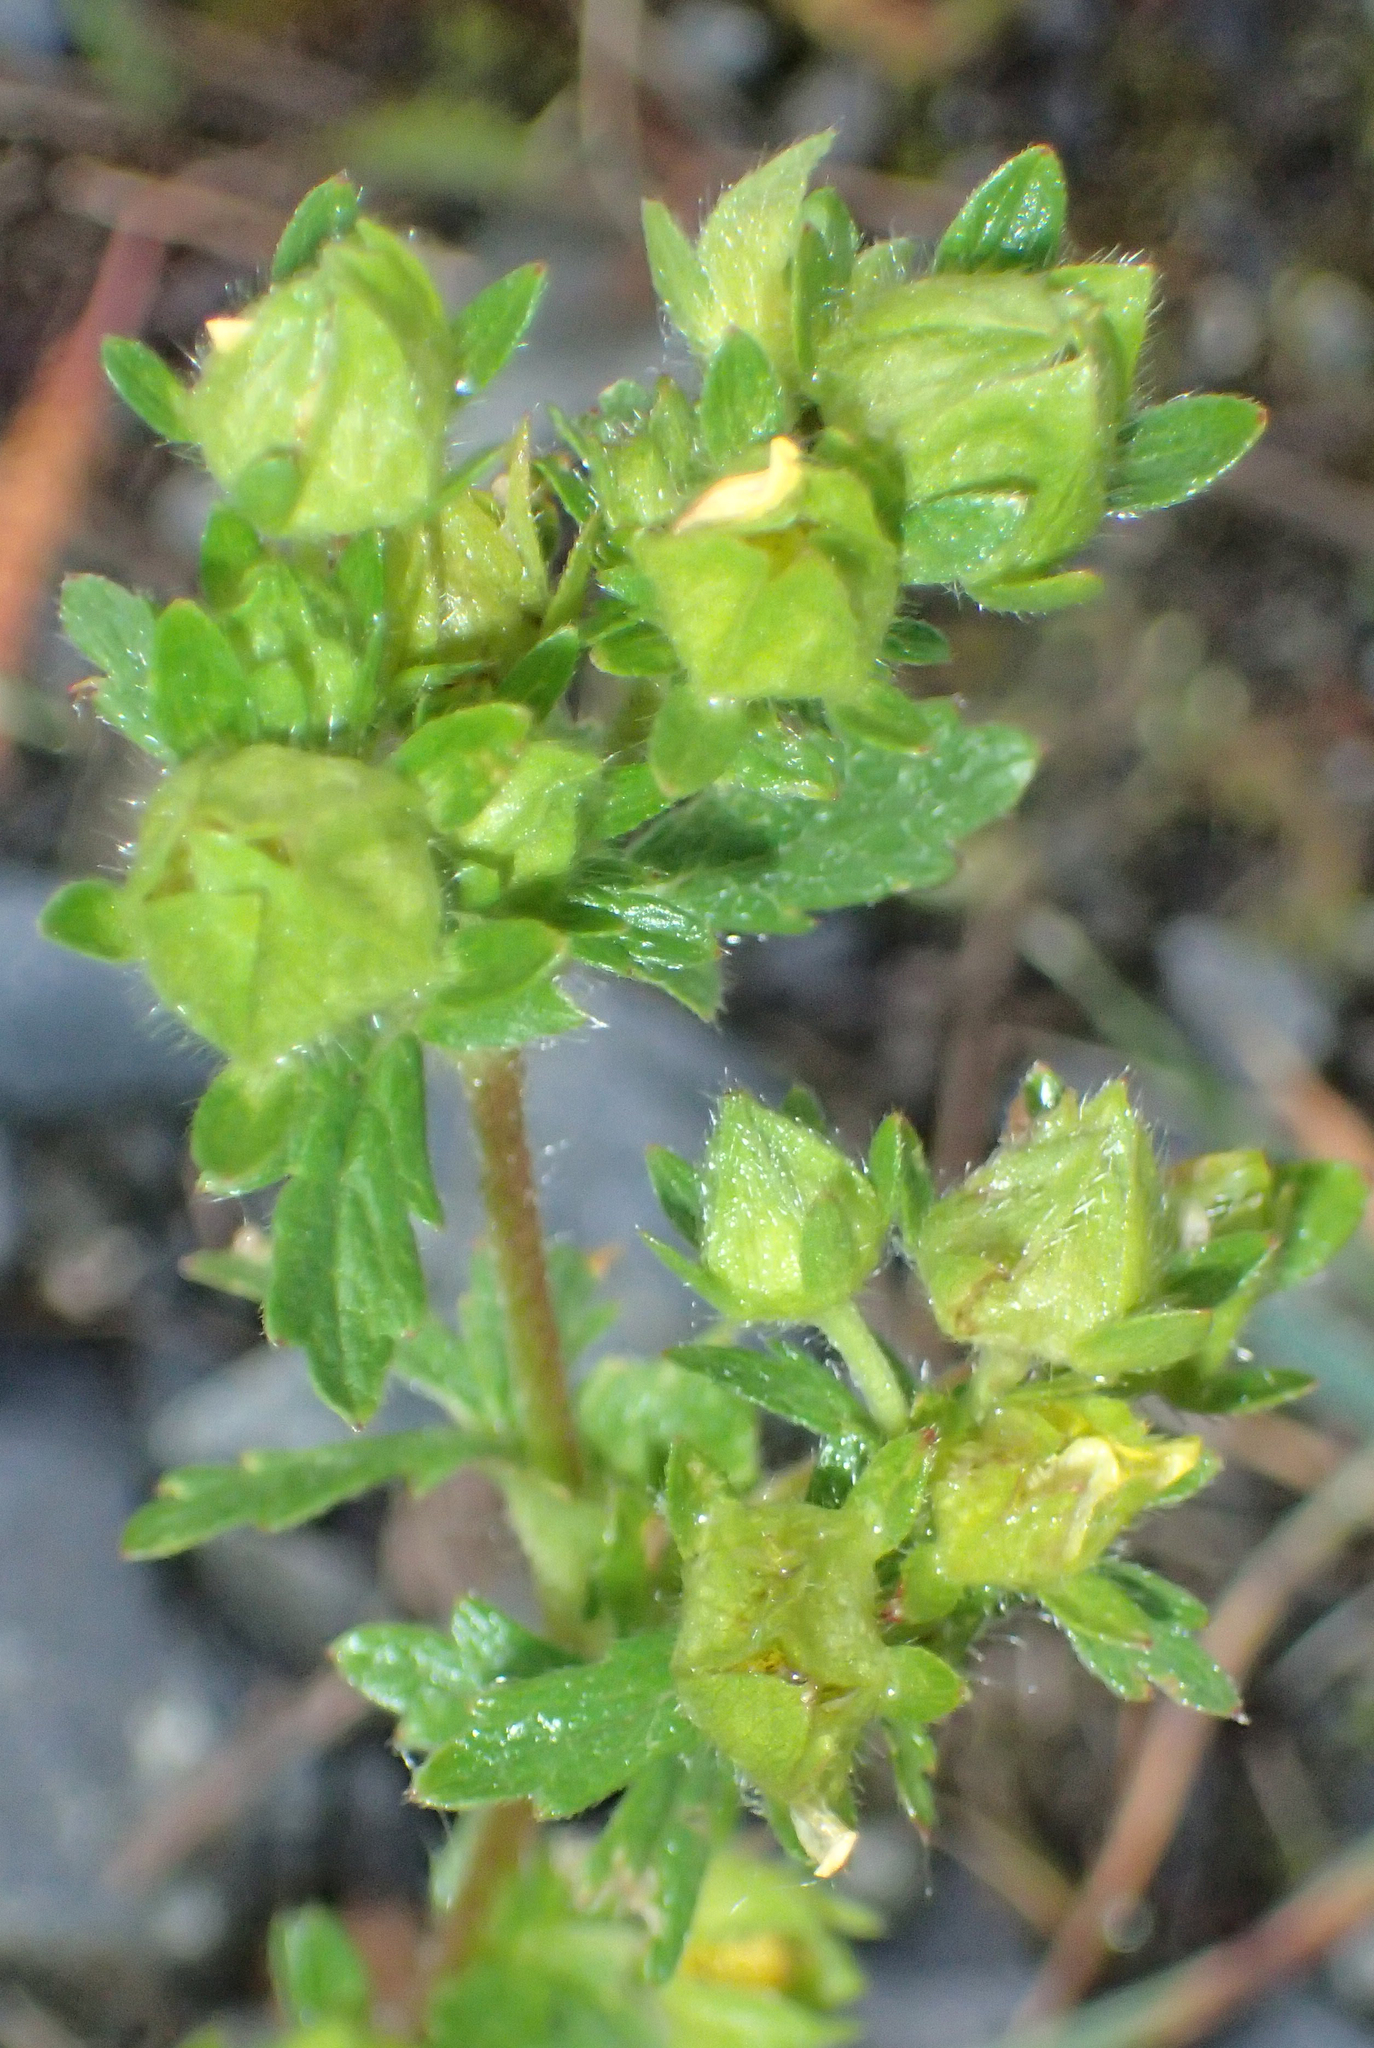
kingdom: Plantae
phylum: Tracheophyta
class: Magnoliopsida
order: Rosales
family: Rosaceae
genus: Potentilla
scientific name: Potentilla norvegica
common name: Ternate-leaved cinquefoil
